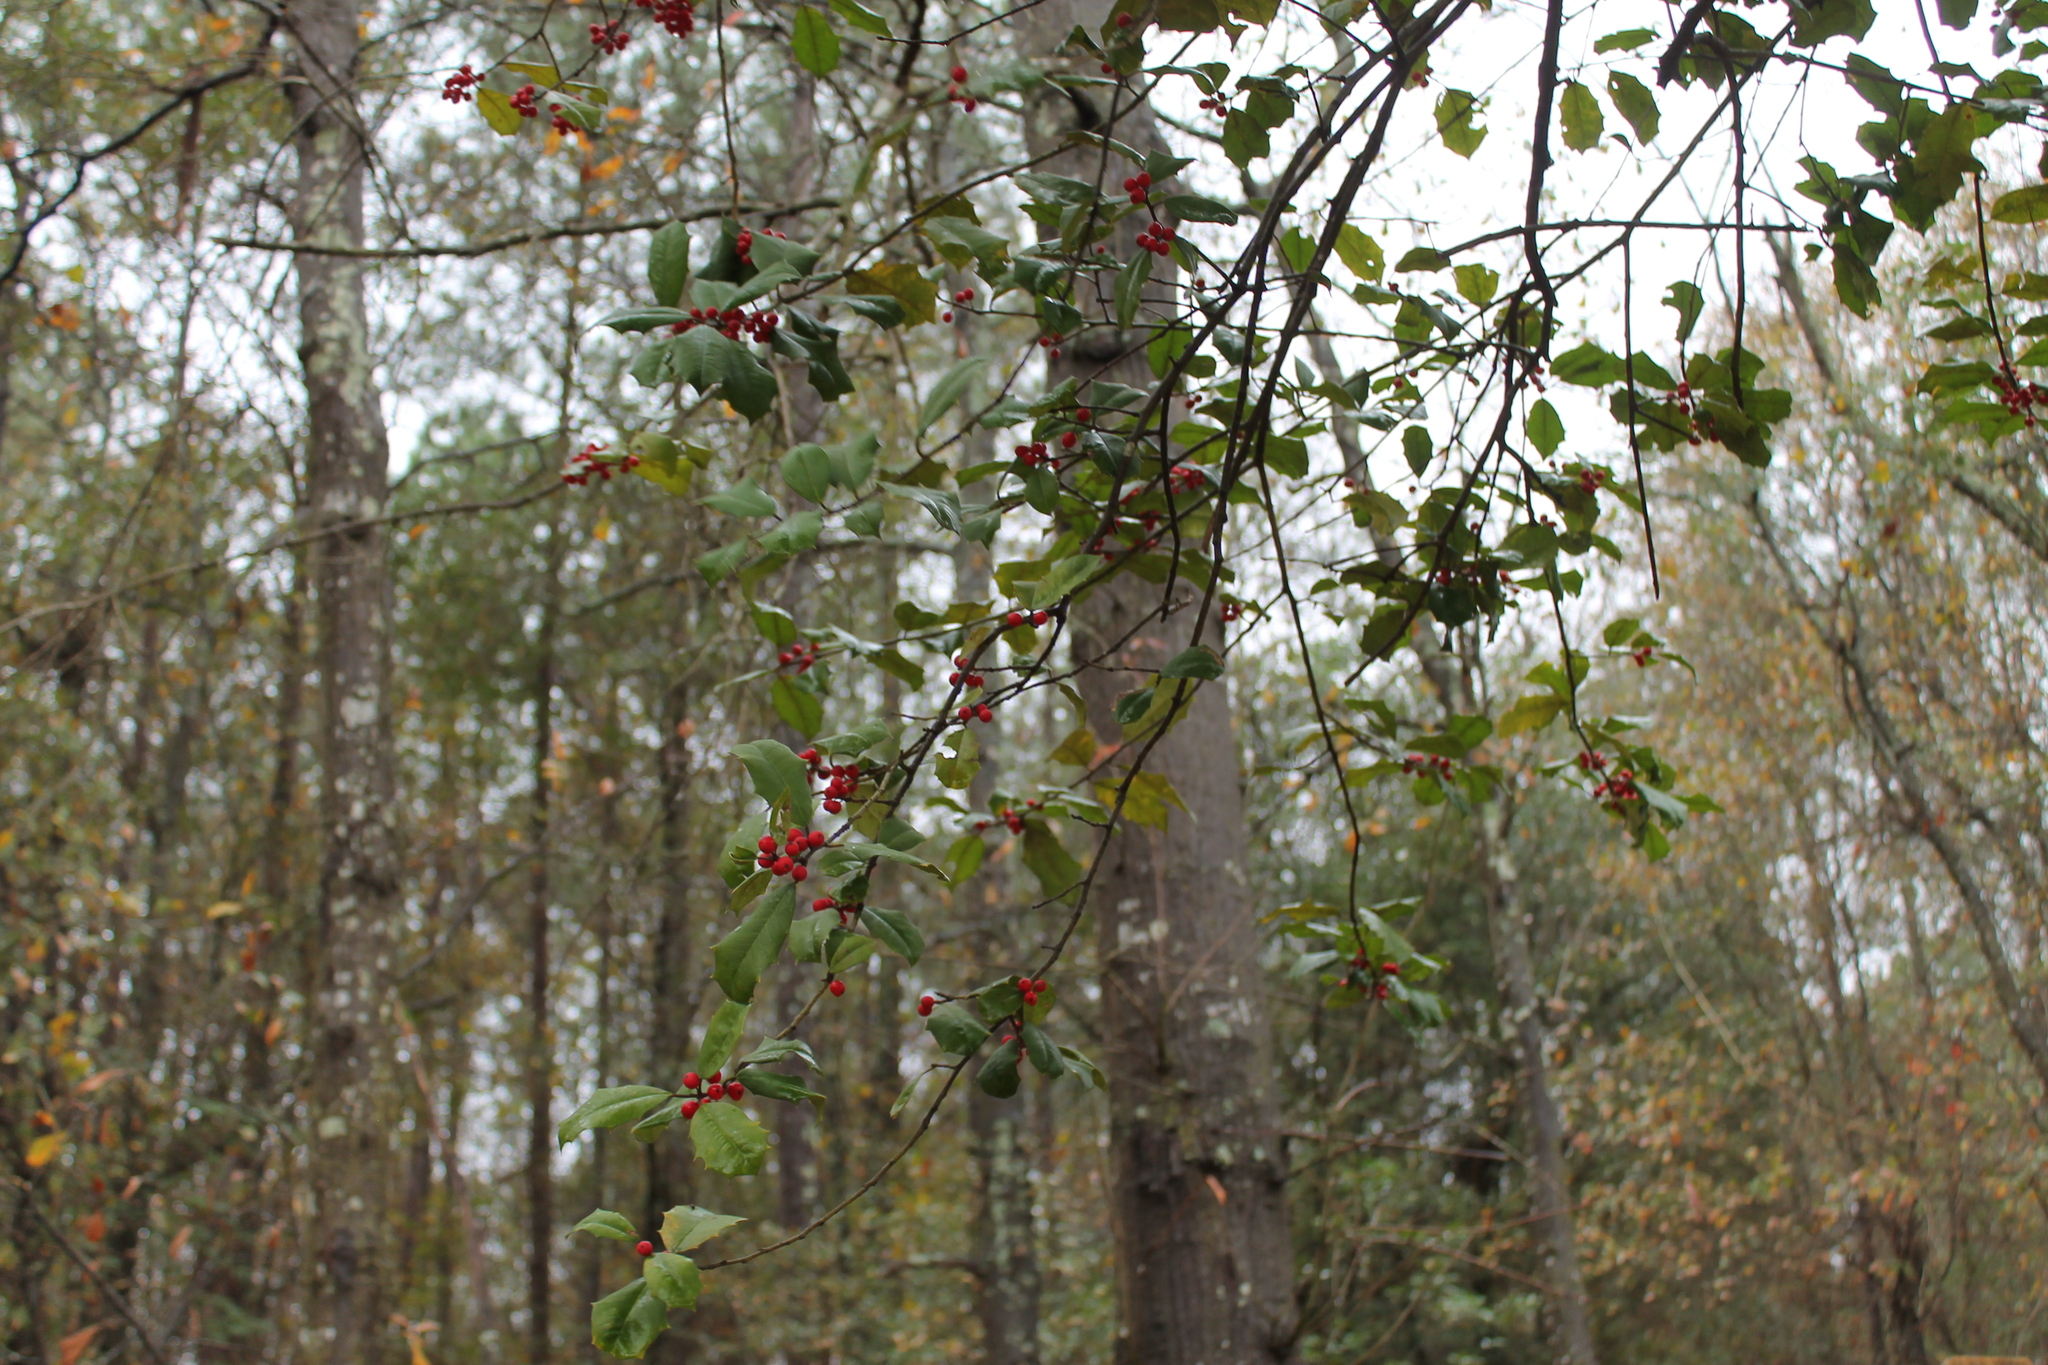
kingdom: Plantae
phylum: Tracheophyta
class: Magnoliopsida
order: Aquifoliales
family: Aquifoliaceae
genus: Ilex
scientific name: Ilex opaca
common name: American holly
